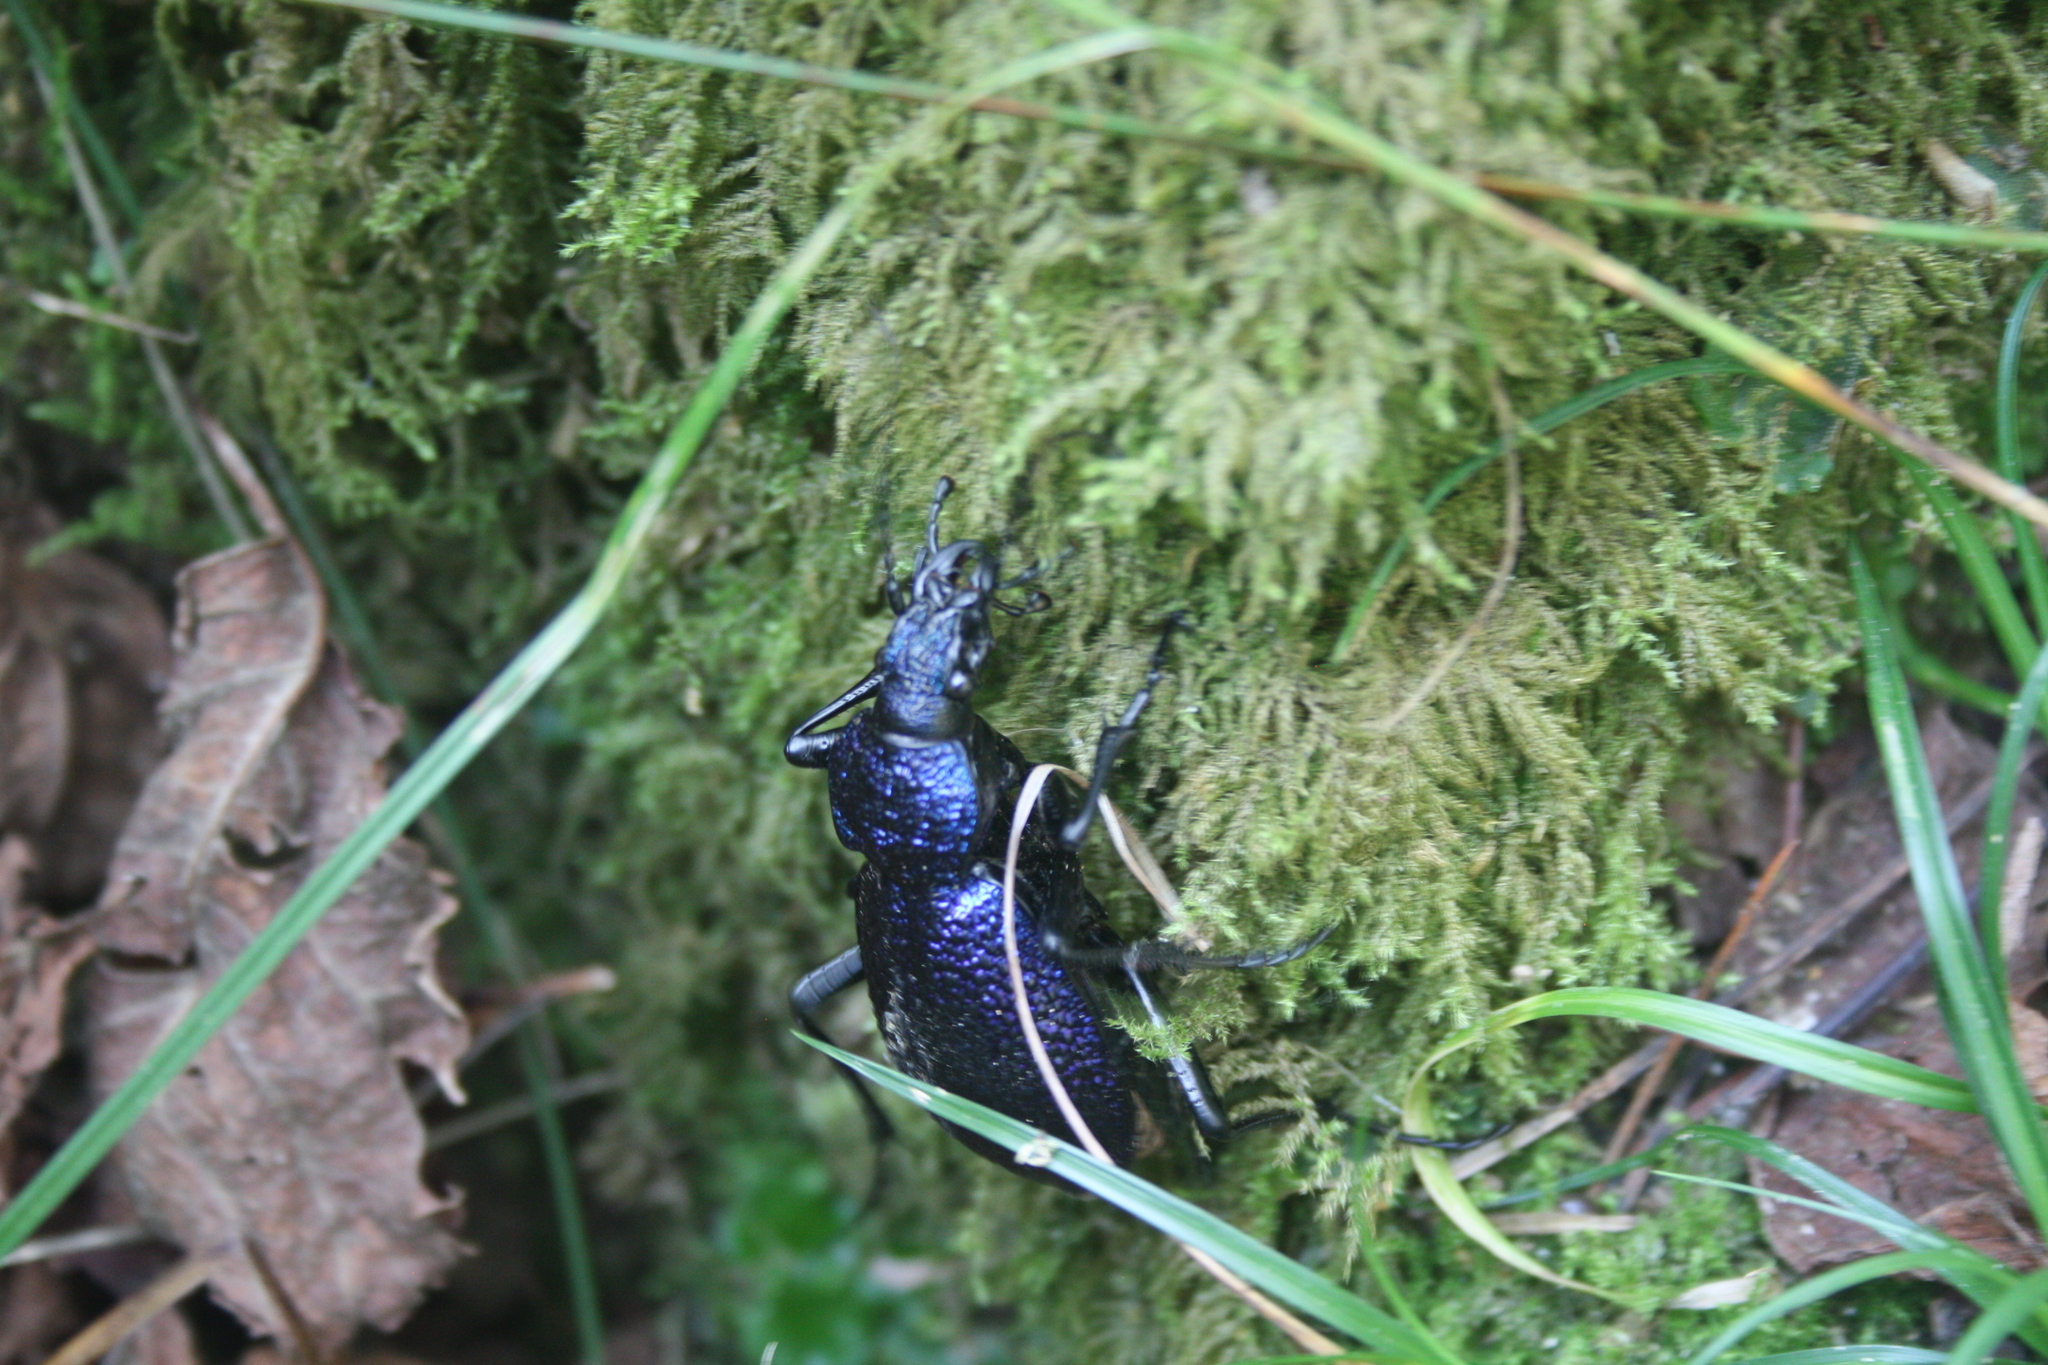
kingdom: Animalia
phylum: Arthropoda
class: Insecta
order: Coleoptera
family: Carabidae
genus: Carabus
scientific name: Carabus scabrosus
